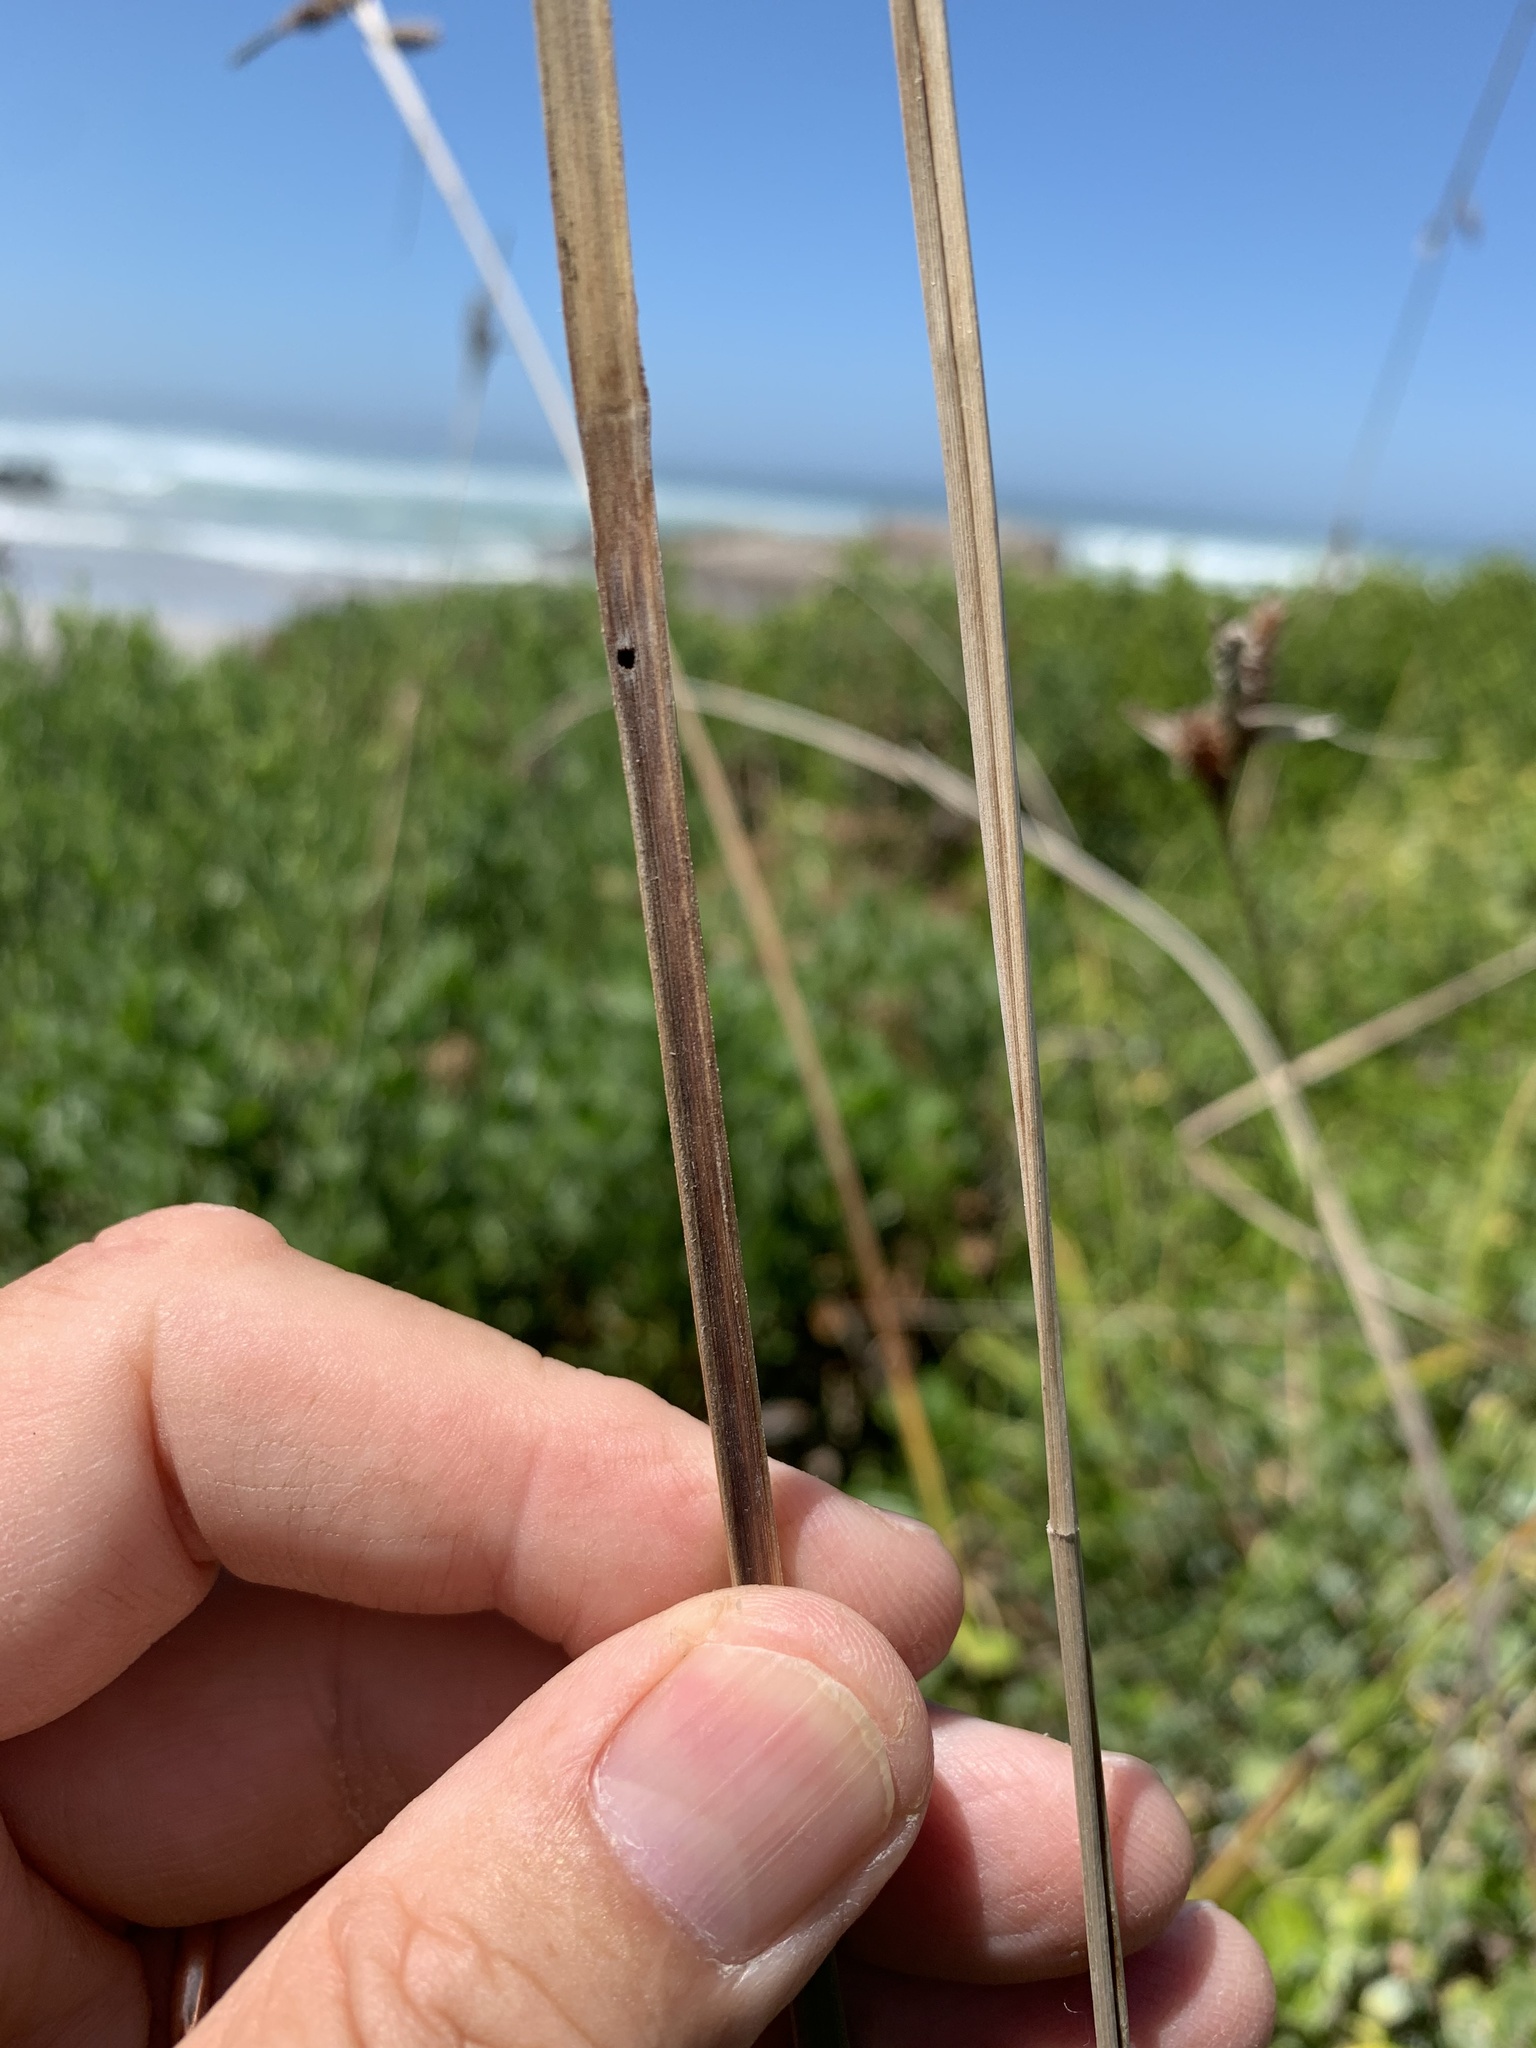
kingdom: Plantae
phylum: Tracheophyta
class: Liliopsida
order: Poales
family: Cyperaceae
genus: Carex
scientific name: Carex clavata
